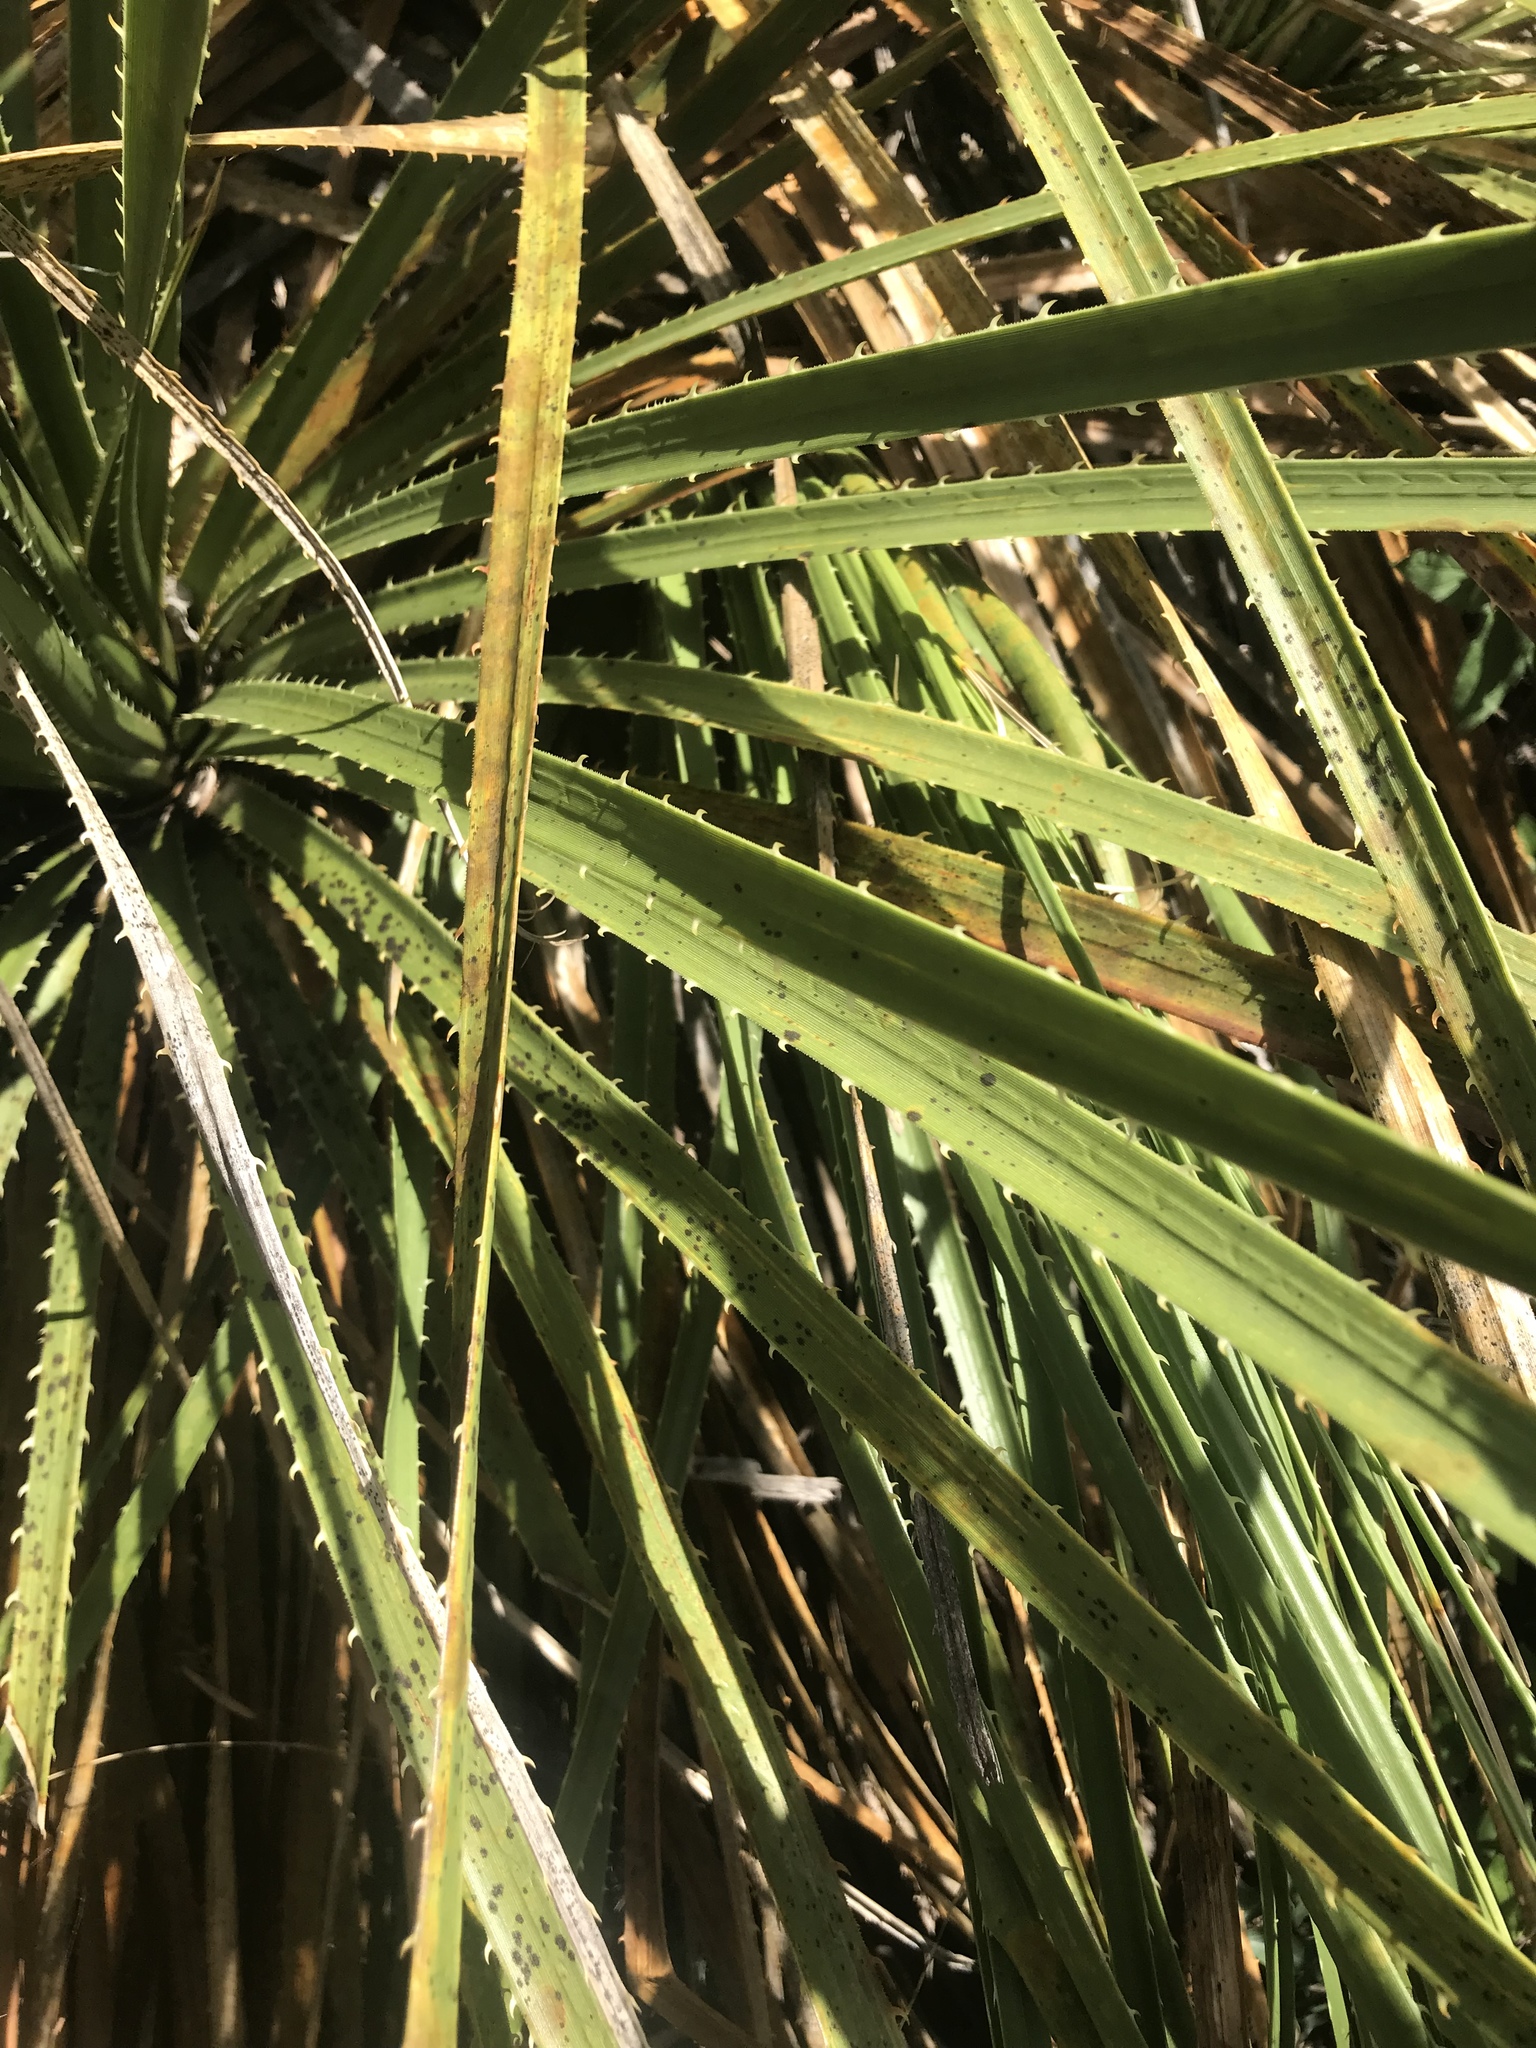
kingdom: Plantae
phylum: Tracheophyta
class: Liliopsida
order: Asparagales
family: Asparagaceae
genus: Dasylirion
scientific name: Dasylirion texanum
